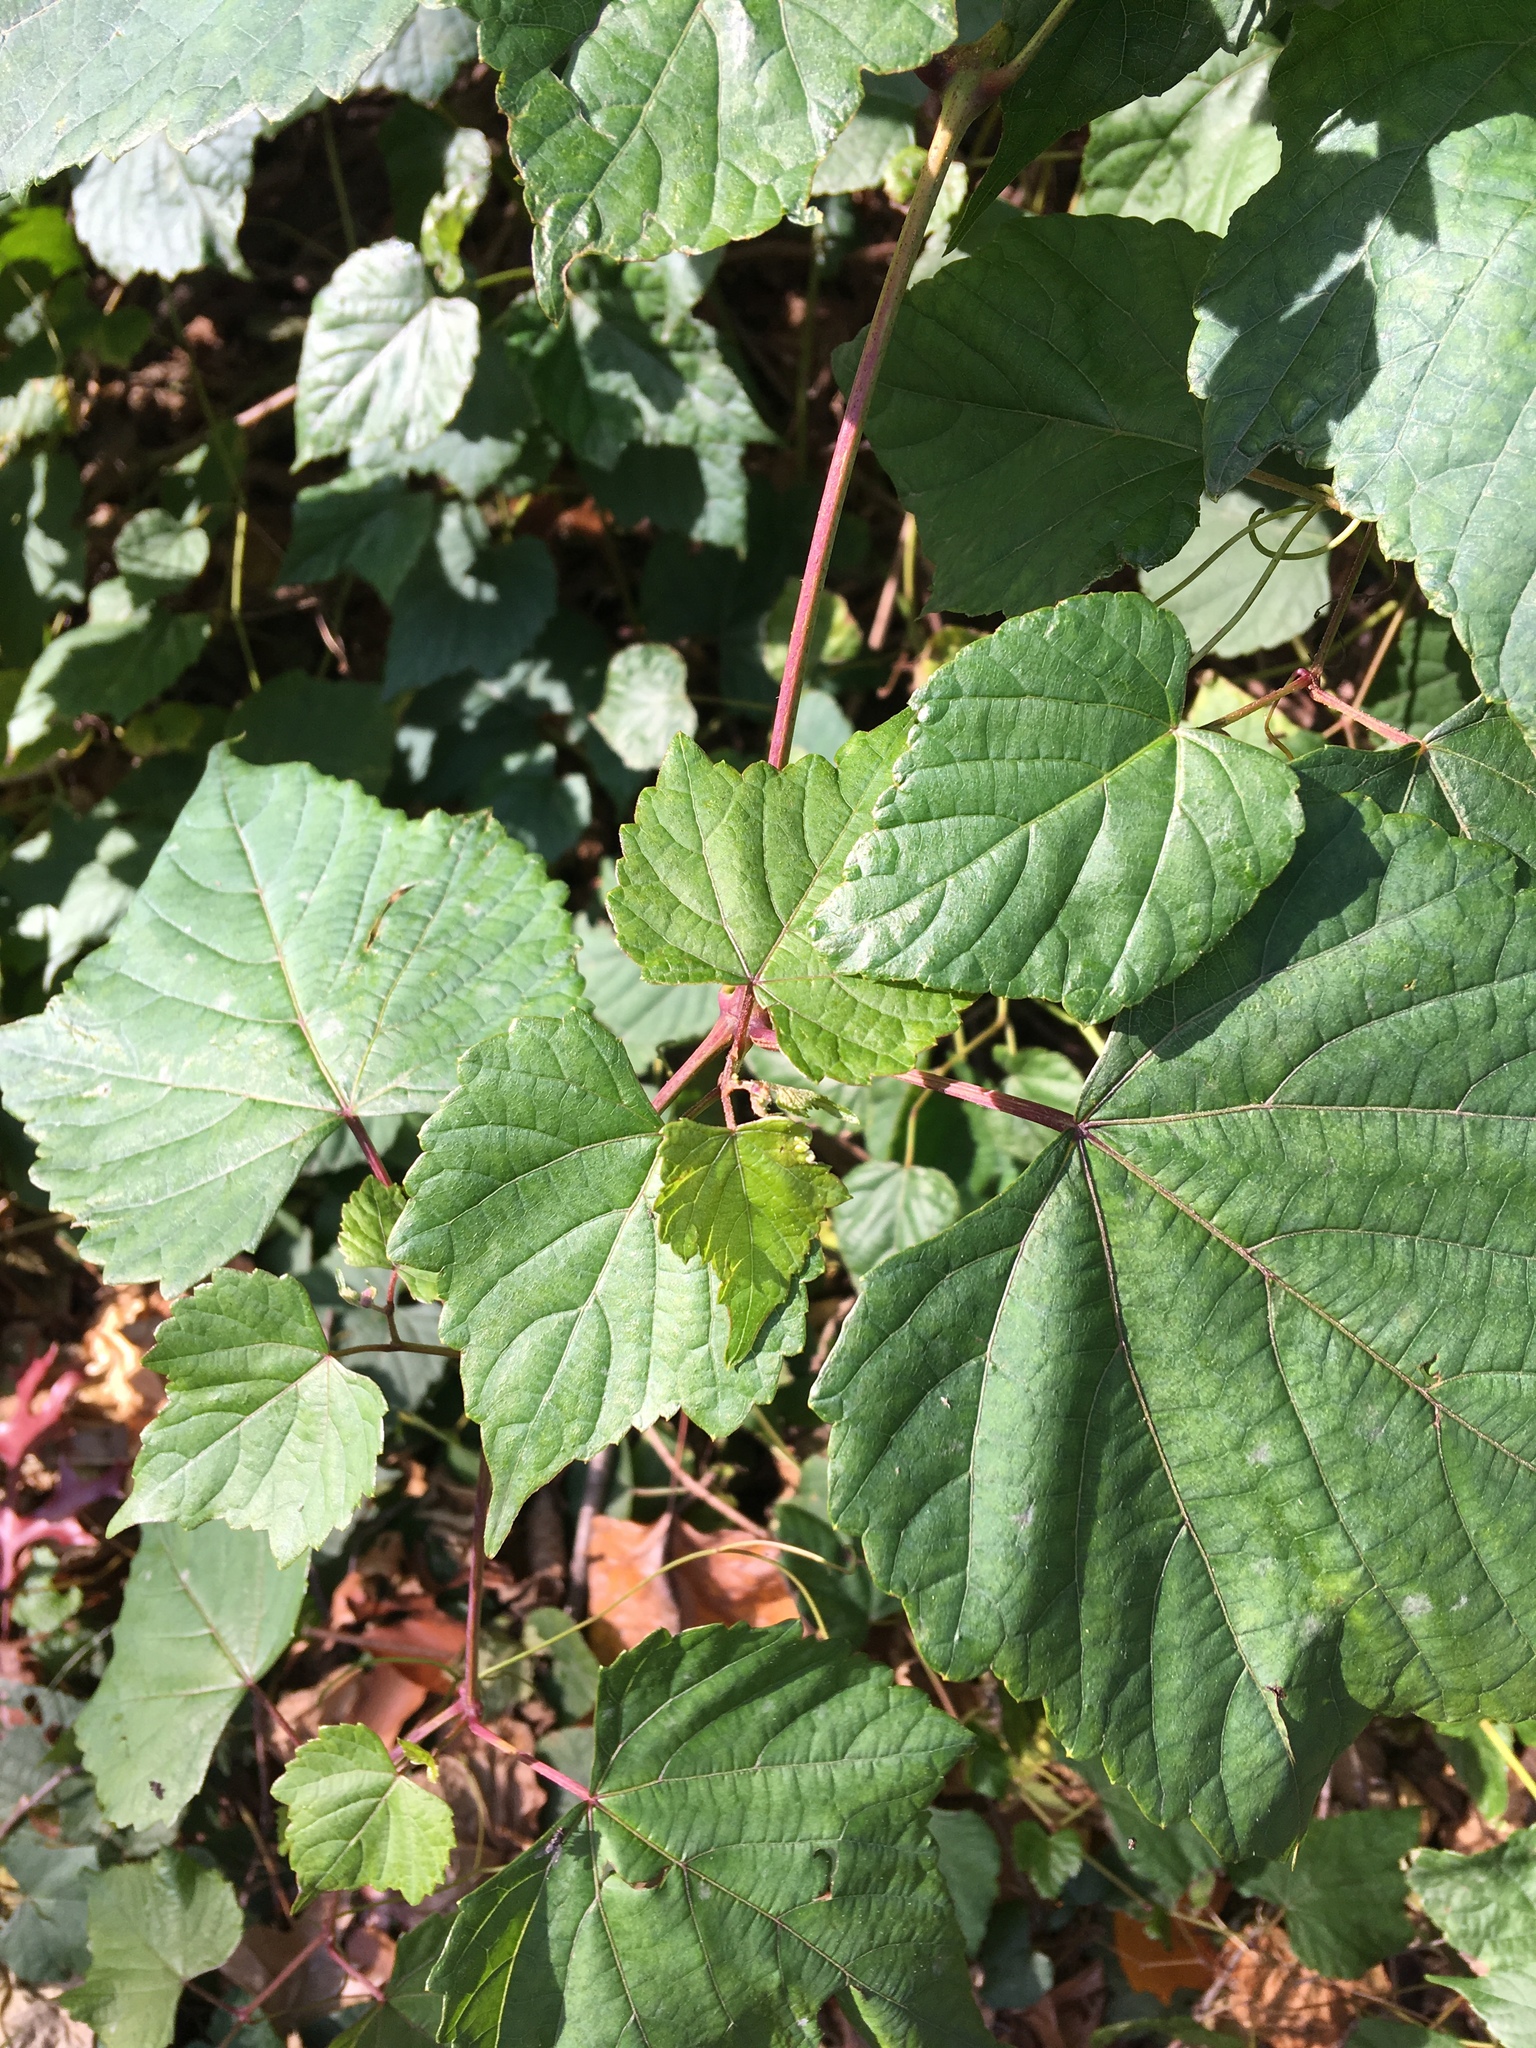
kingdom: Plantae
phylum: Tracheophyta
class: Magnoliopsida
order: Vitales
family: Vitaceae
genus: Ampelopsis
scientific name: Ampelopsis glandulosa
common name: Amur peppervine
